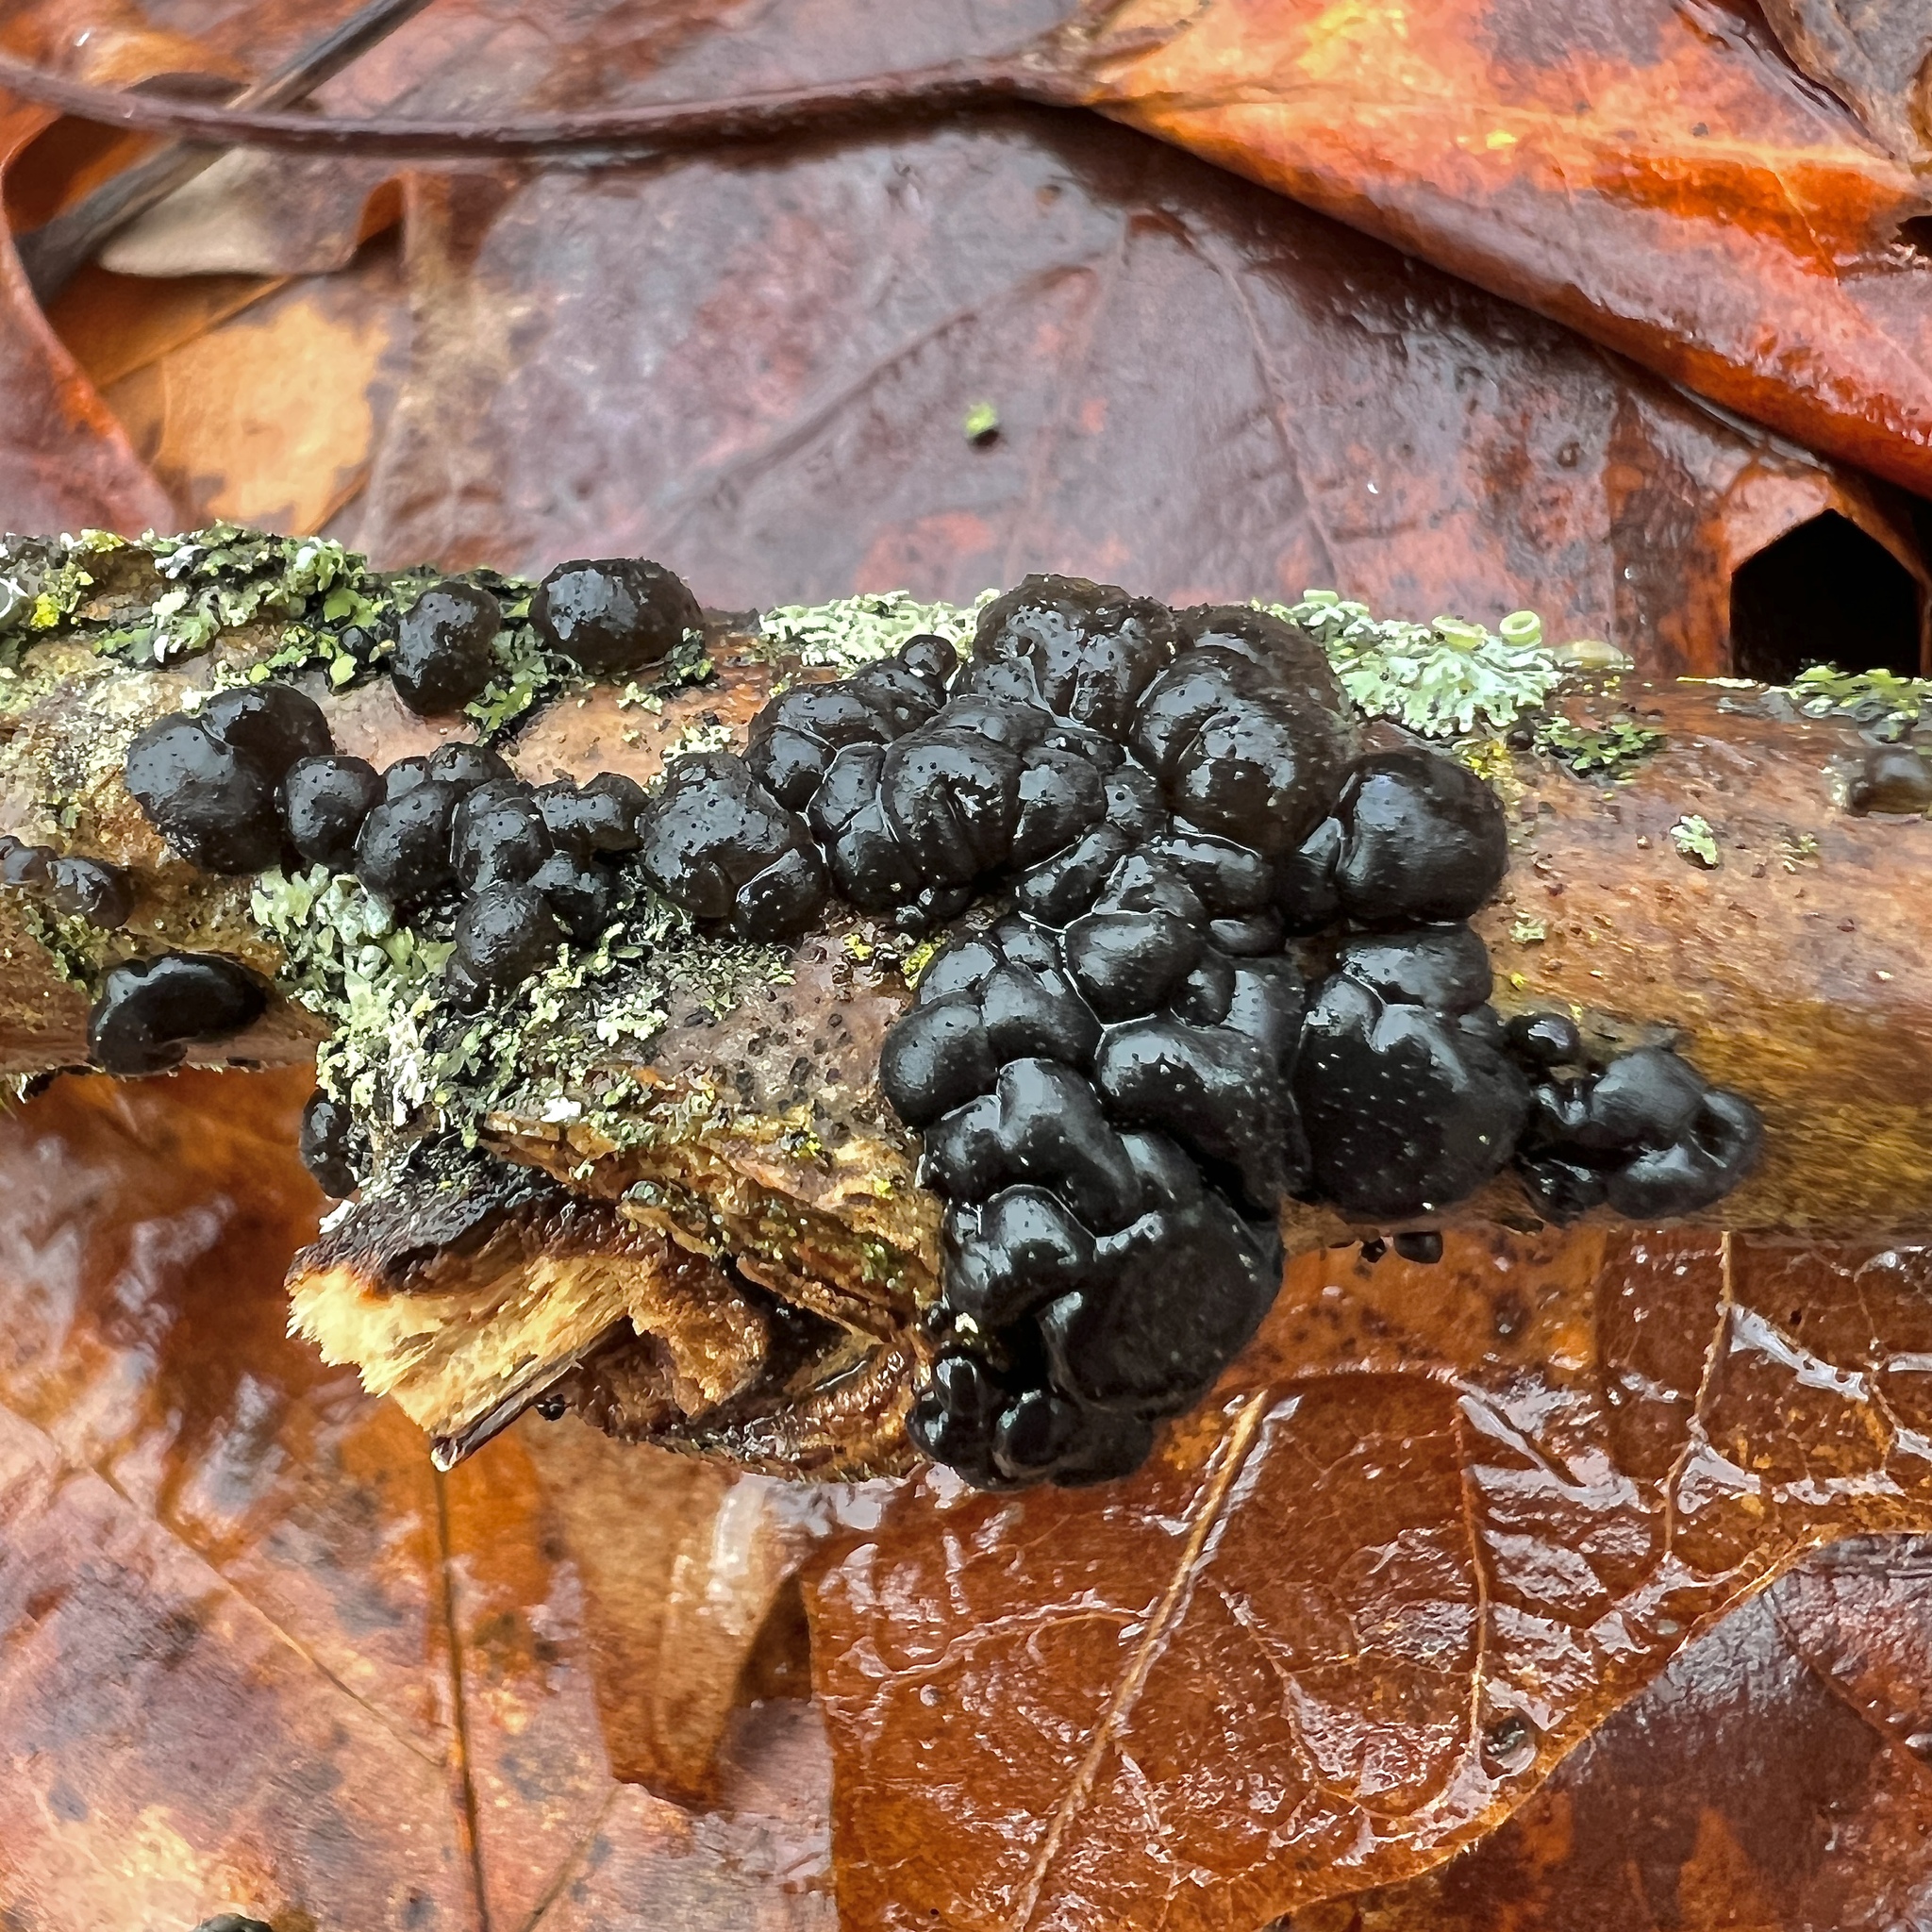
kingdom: Fungi
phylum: Basidiomycota
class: Agaricomycetes
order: Auriculariales
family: Auriculariaceae
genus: Exidia
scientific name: Exidia glandulosa
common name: Witches' butter
